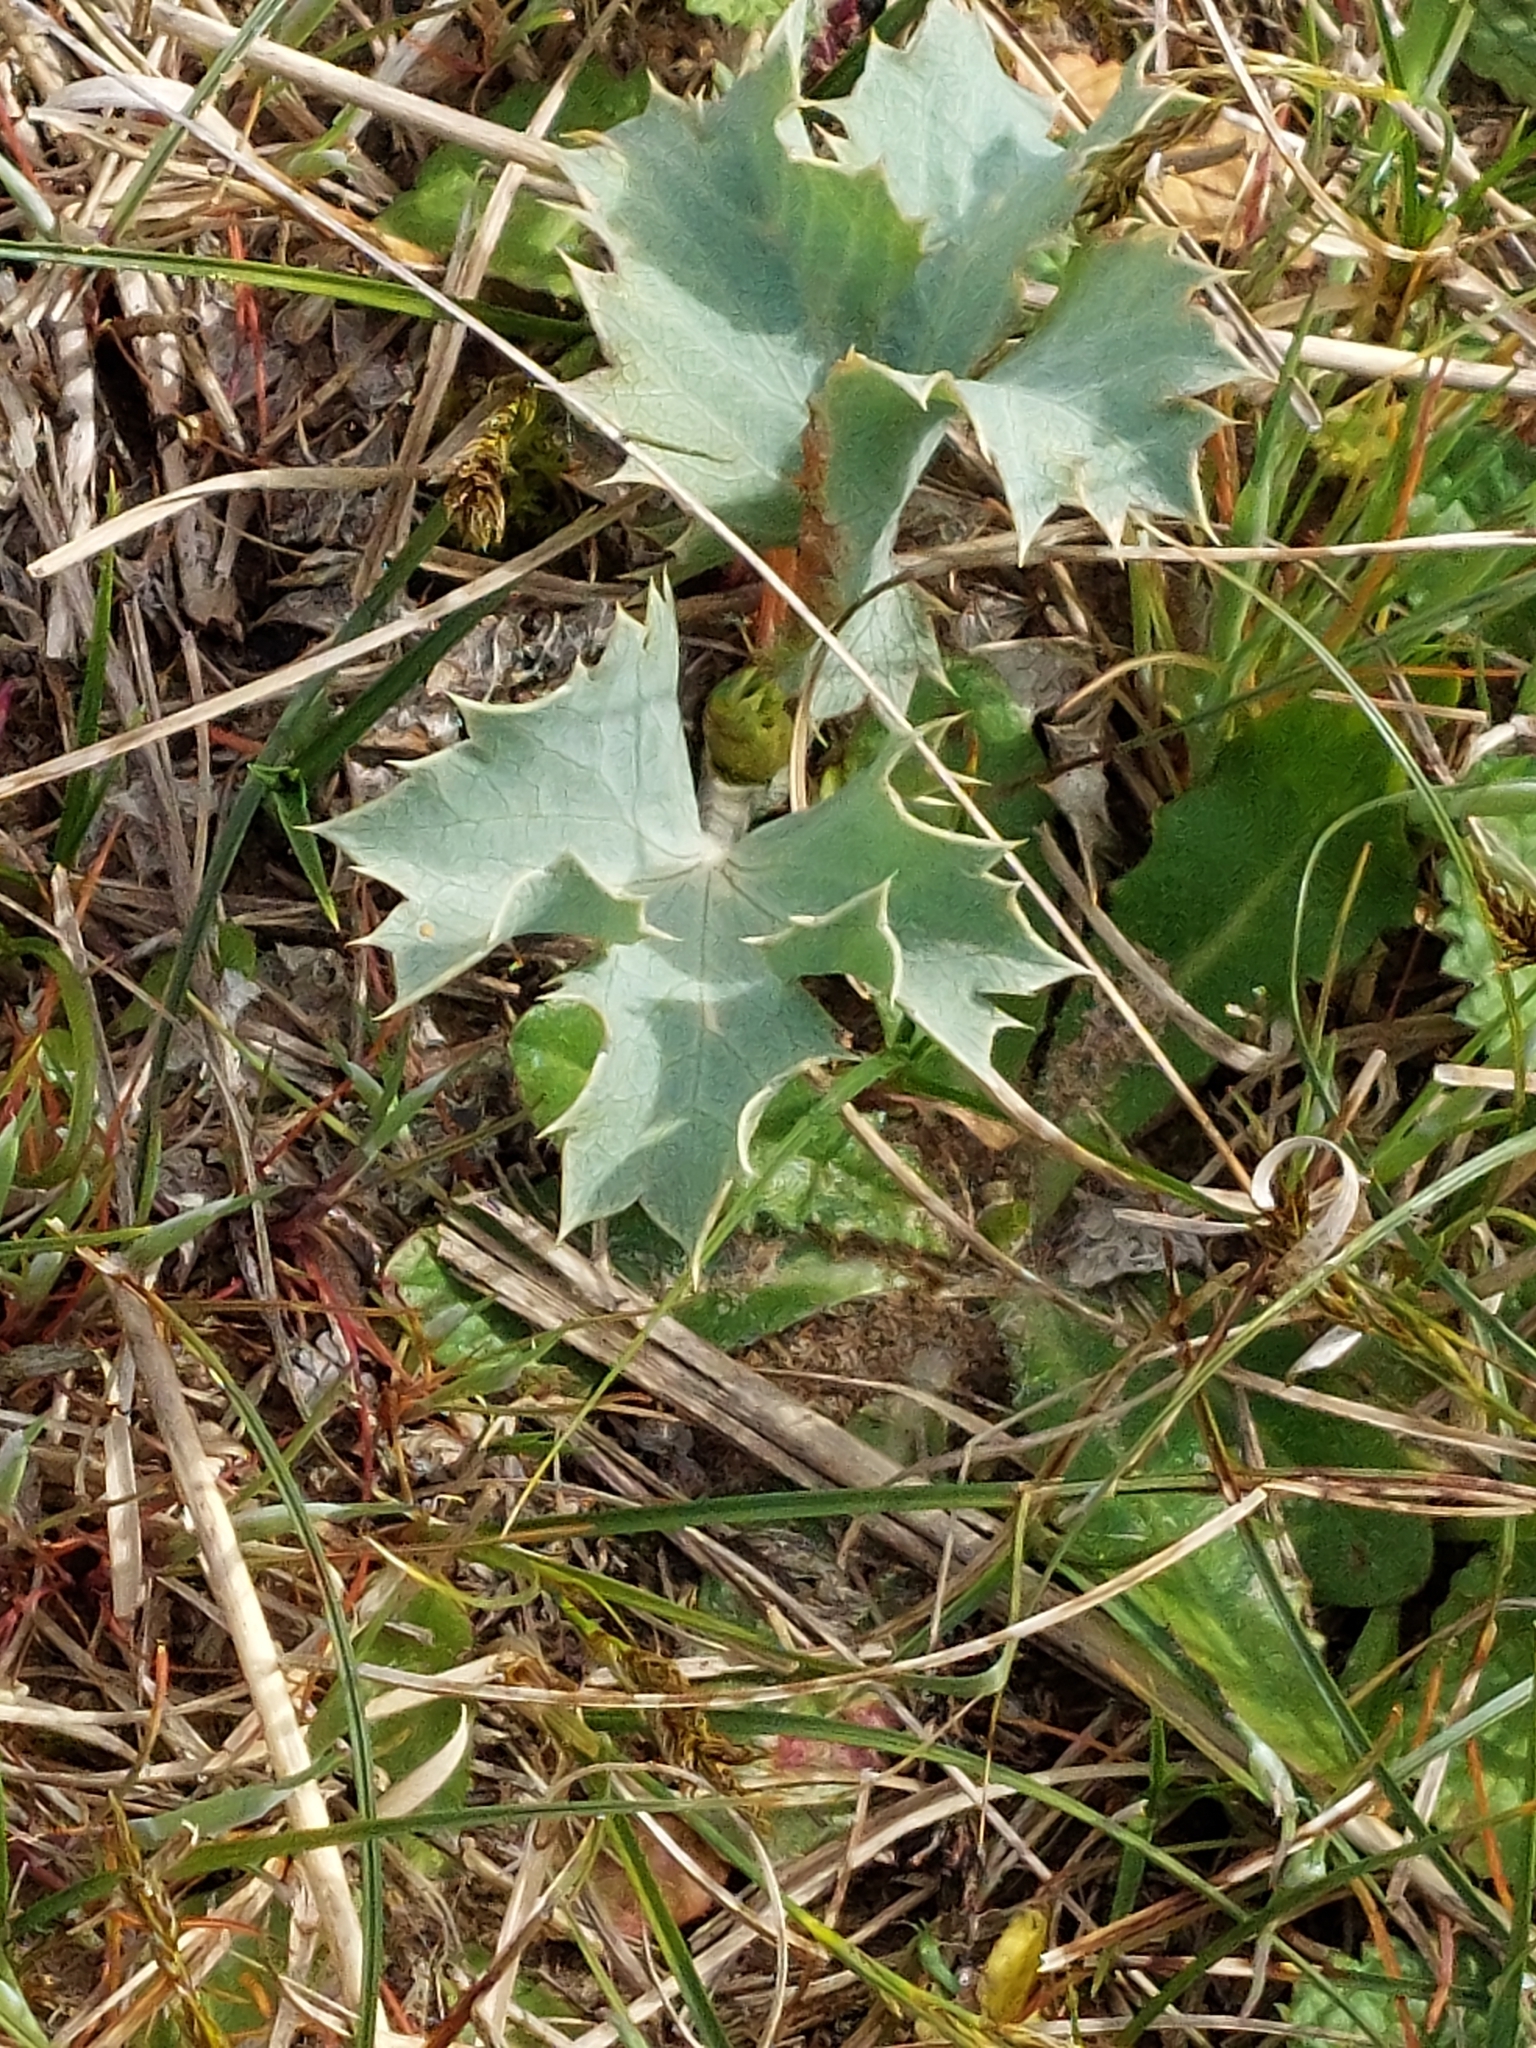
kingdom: Plantae
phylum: Tracheophyta
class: Magnoliopsida
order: Apiales
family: Apiaceae
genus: Eryngium
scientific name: Eryngium maritimum
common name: Sea-holly
